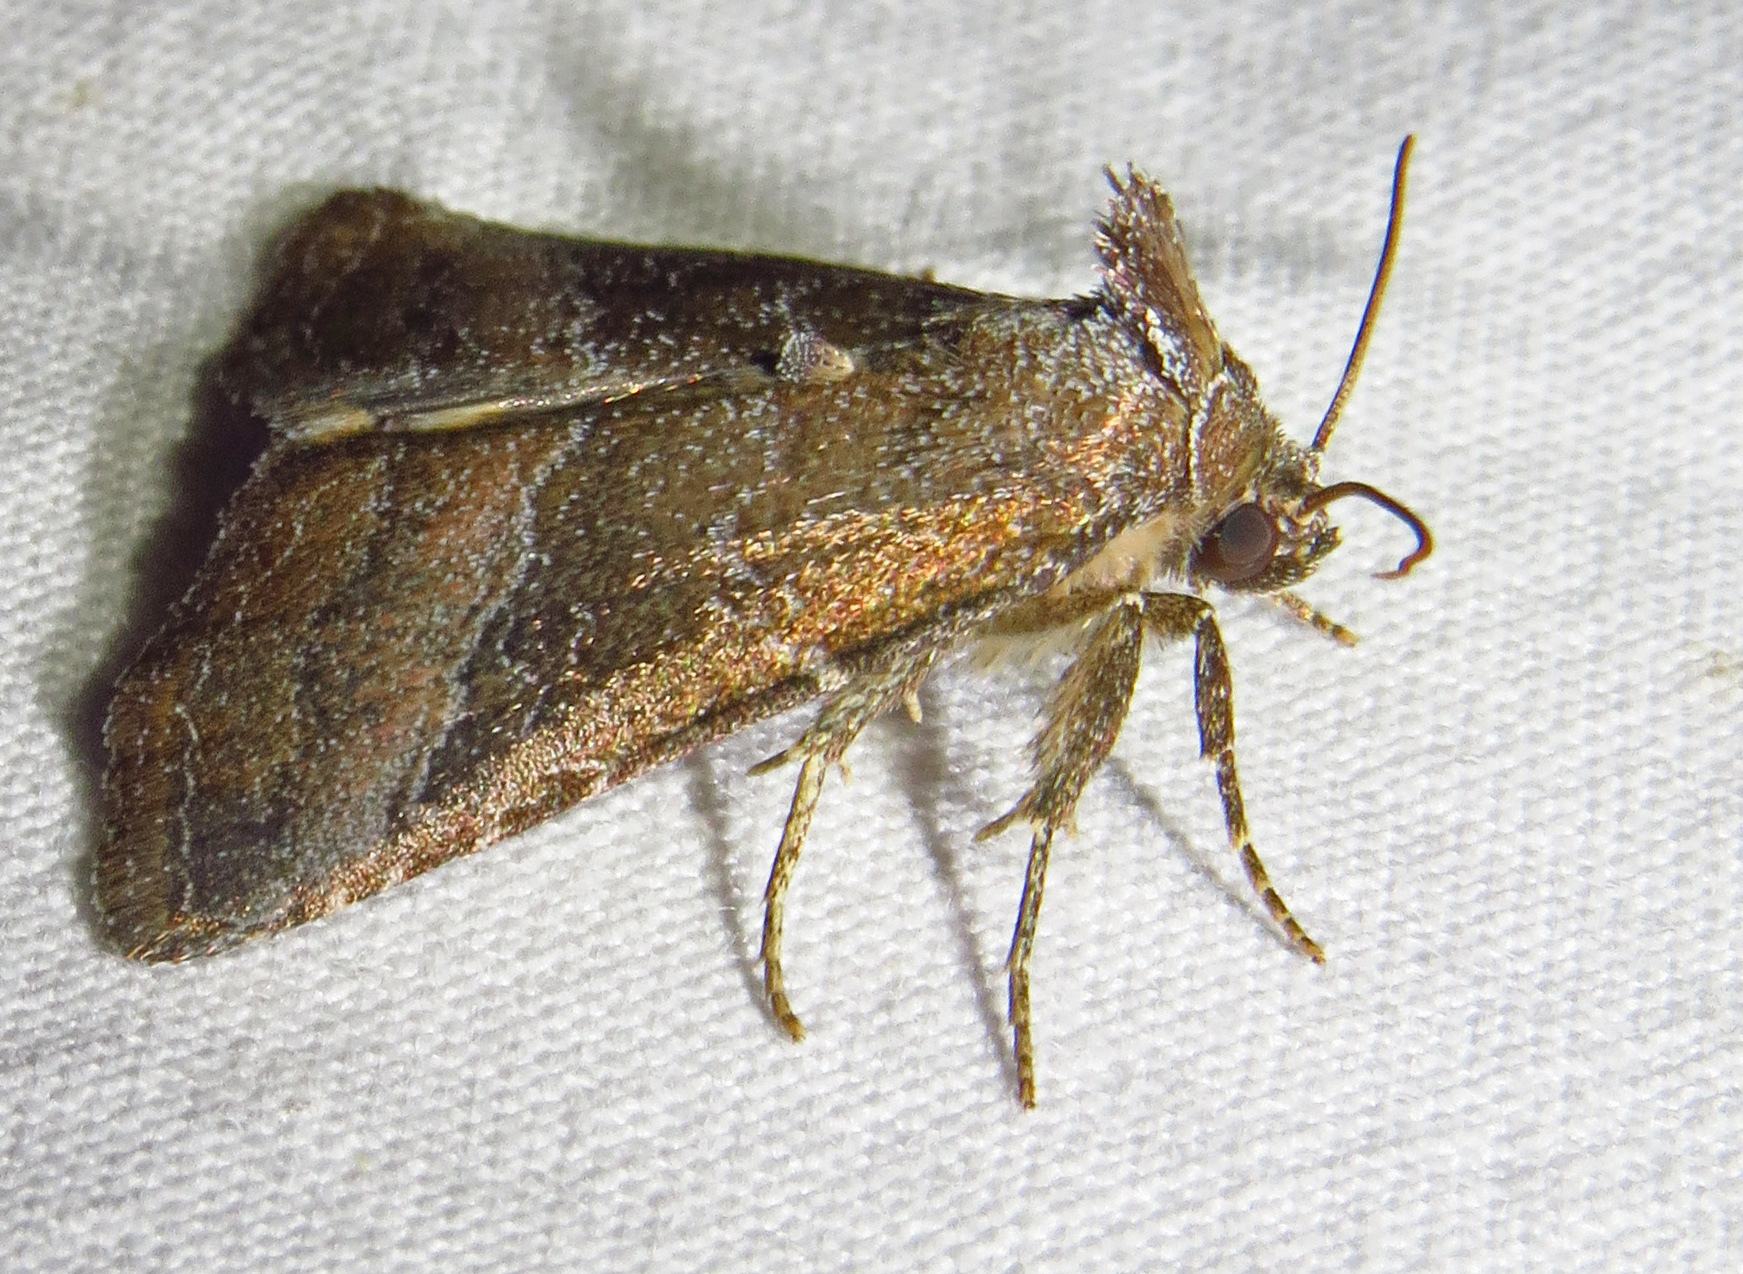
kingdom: Animalia
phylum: Arthropoda
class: Insecta
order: Lepidoptera
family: Noctuidae
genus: Ogdoconta
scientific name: Ogdoconta cinereola
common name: Common pinkband
